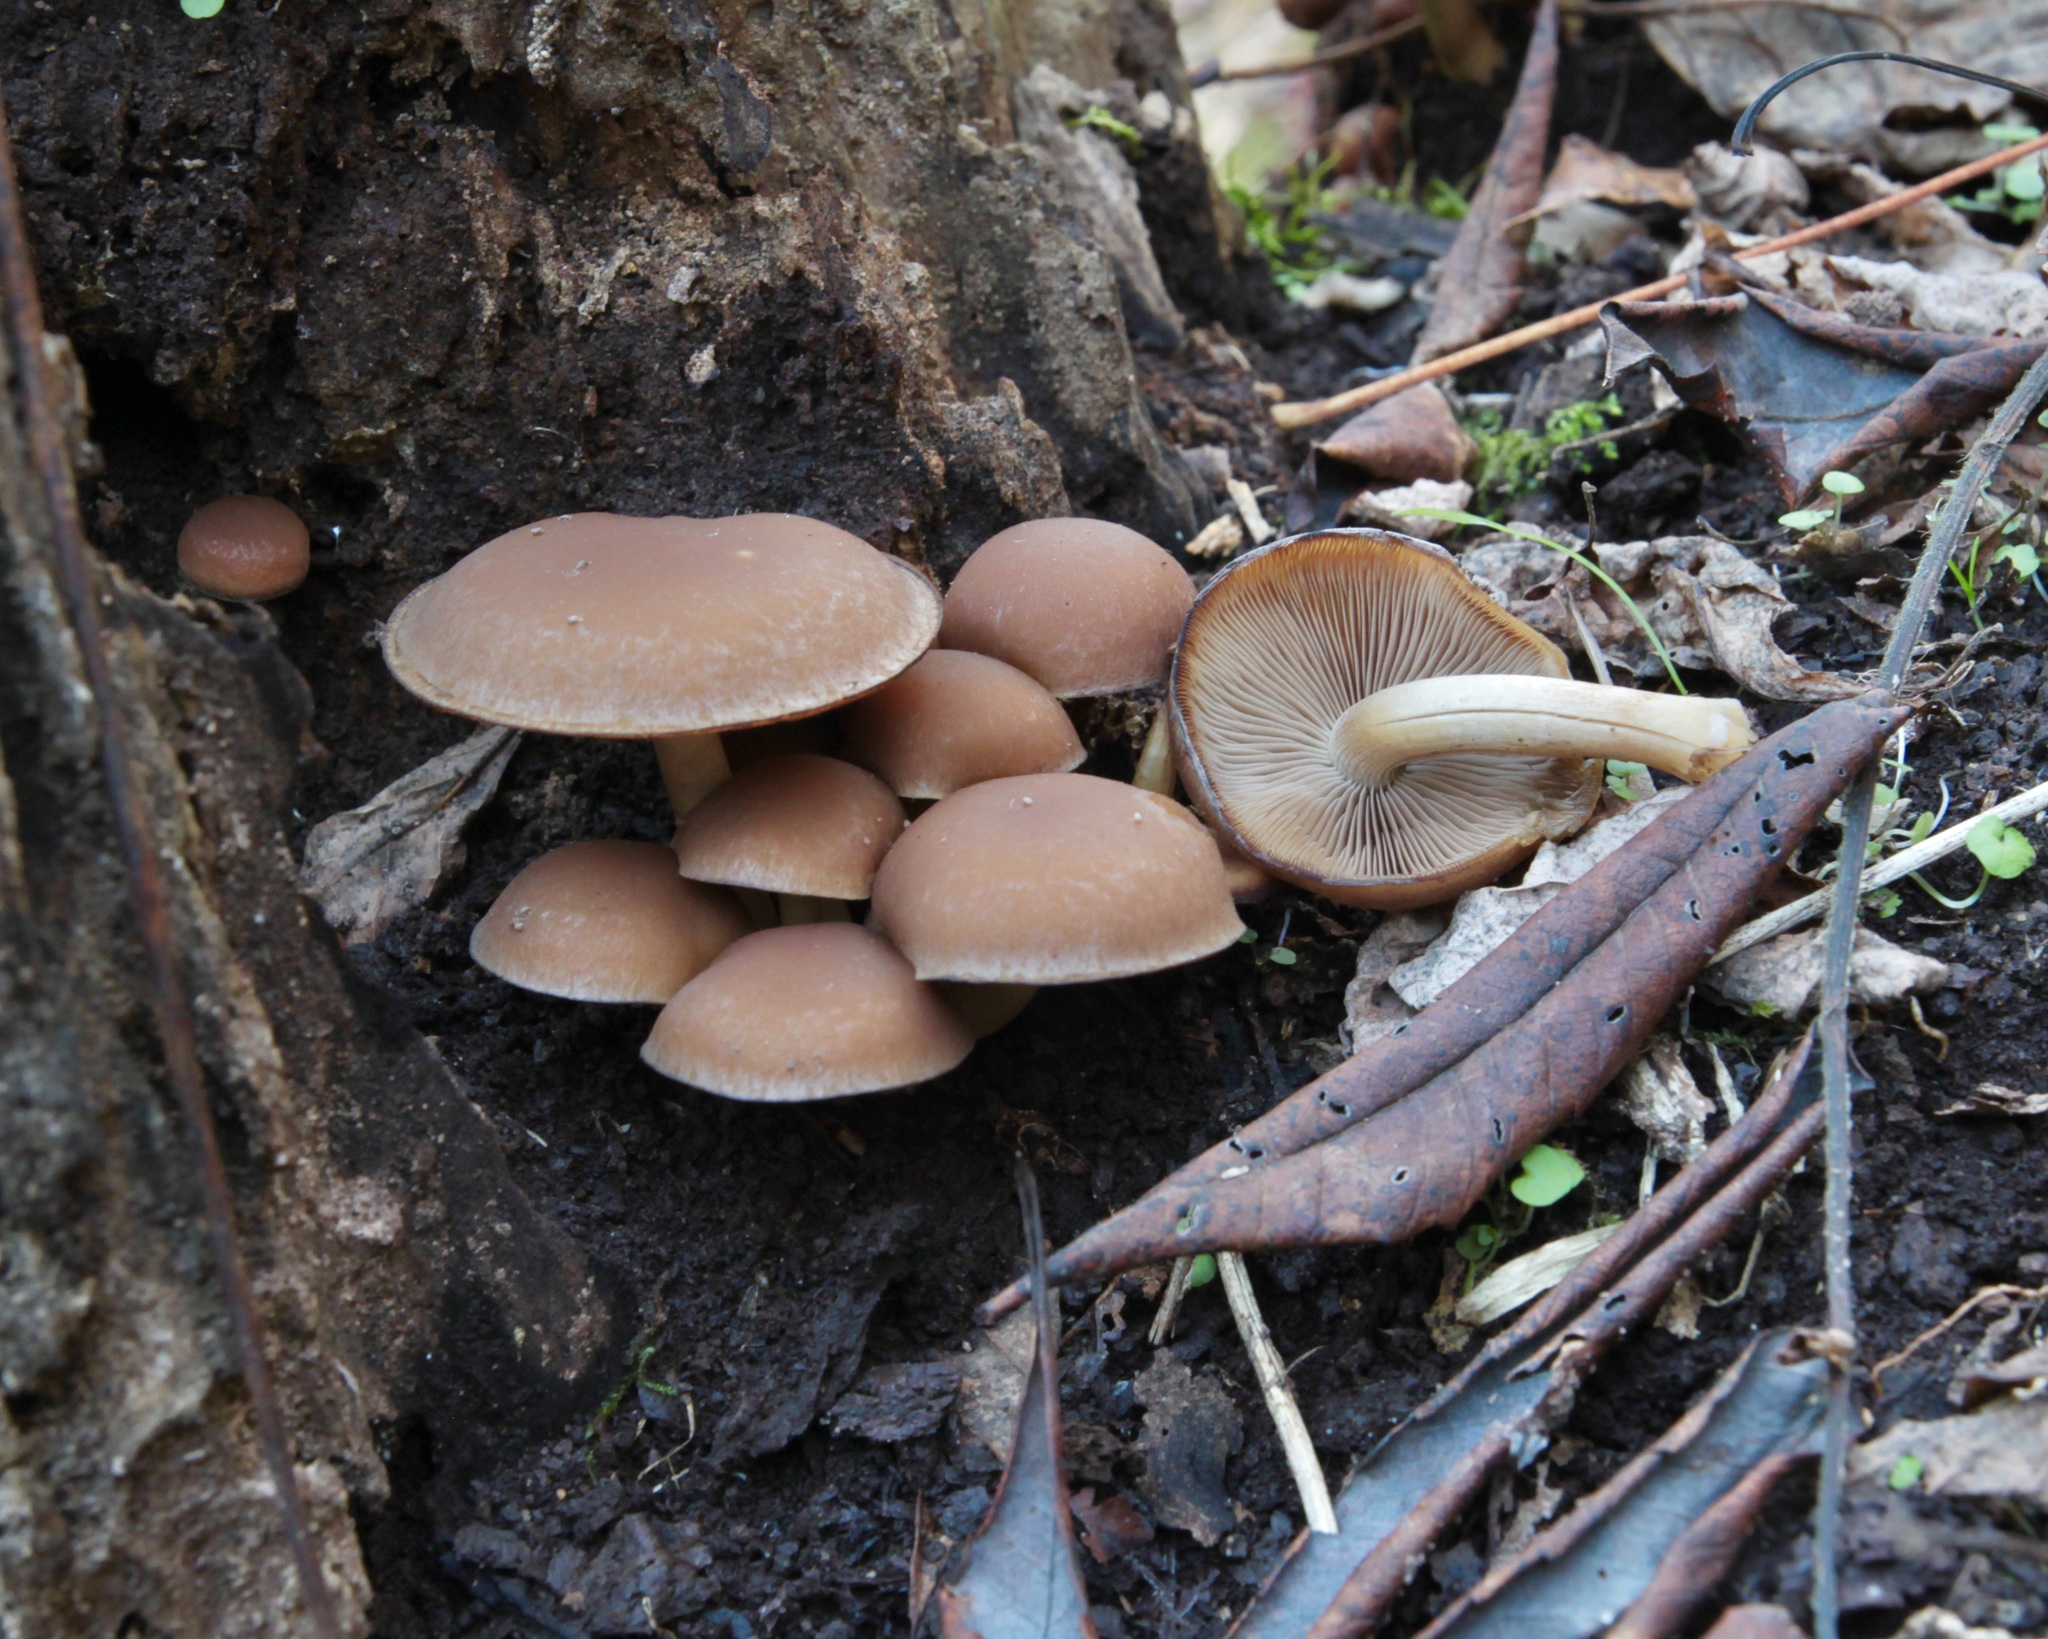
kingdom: Fungi
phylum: Basidiomycota
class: Agaricomycetes
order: Agaricales
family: Psathyrellaceae
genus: Psathyrella
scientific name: Psathyrella piluliformis
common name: Common stump brittlestem
